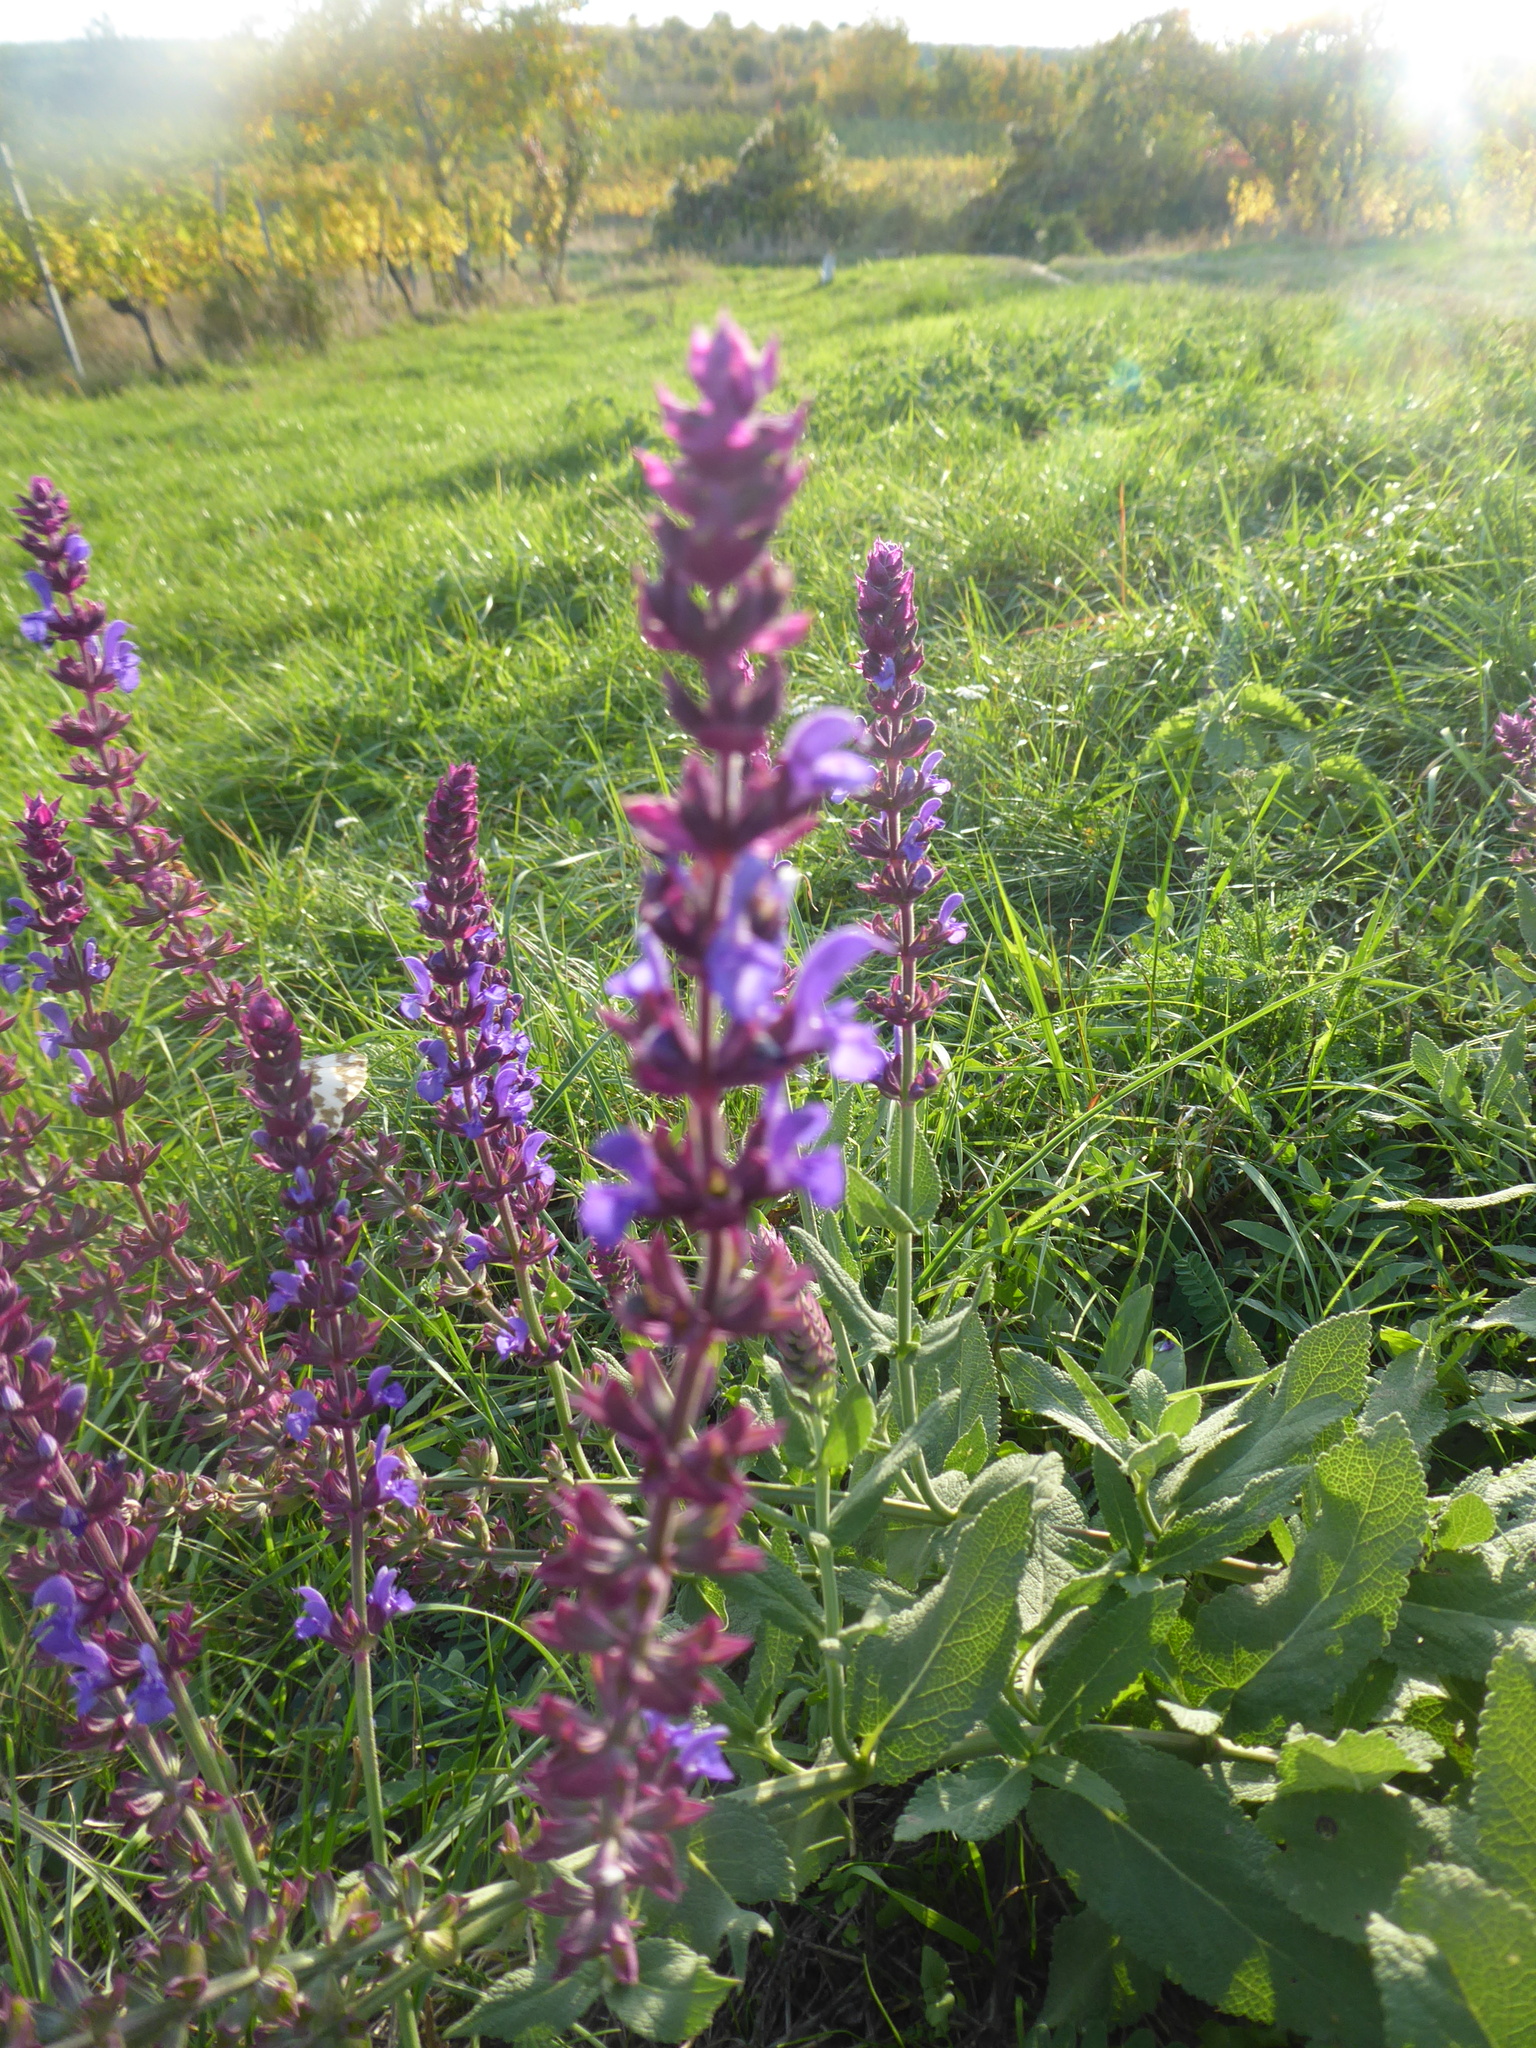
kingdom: Plantae
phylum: Tracheophyta
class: Magnoliopsida
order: Lamiales
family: Lamiaceae
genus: Salvia
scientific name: Salvia nemorosa
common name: Balkan clary
